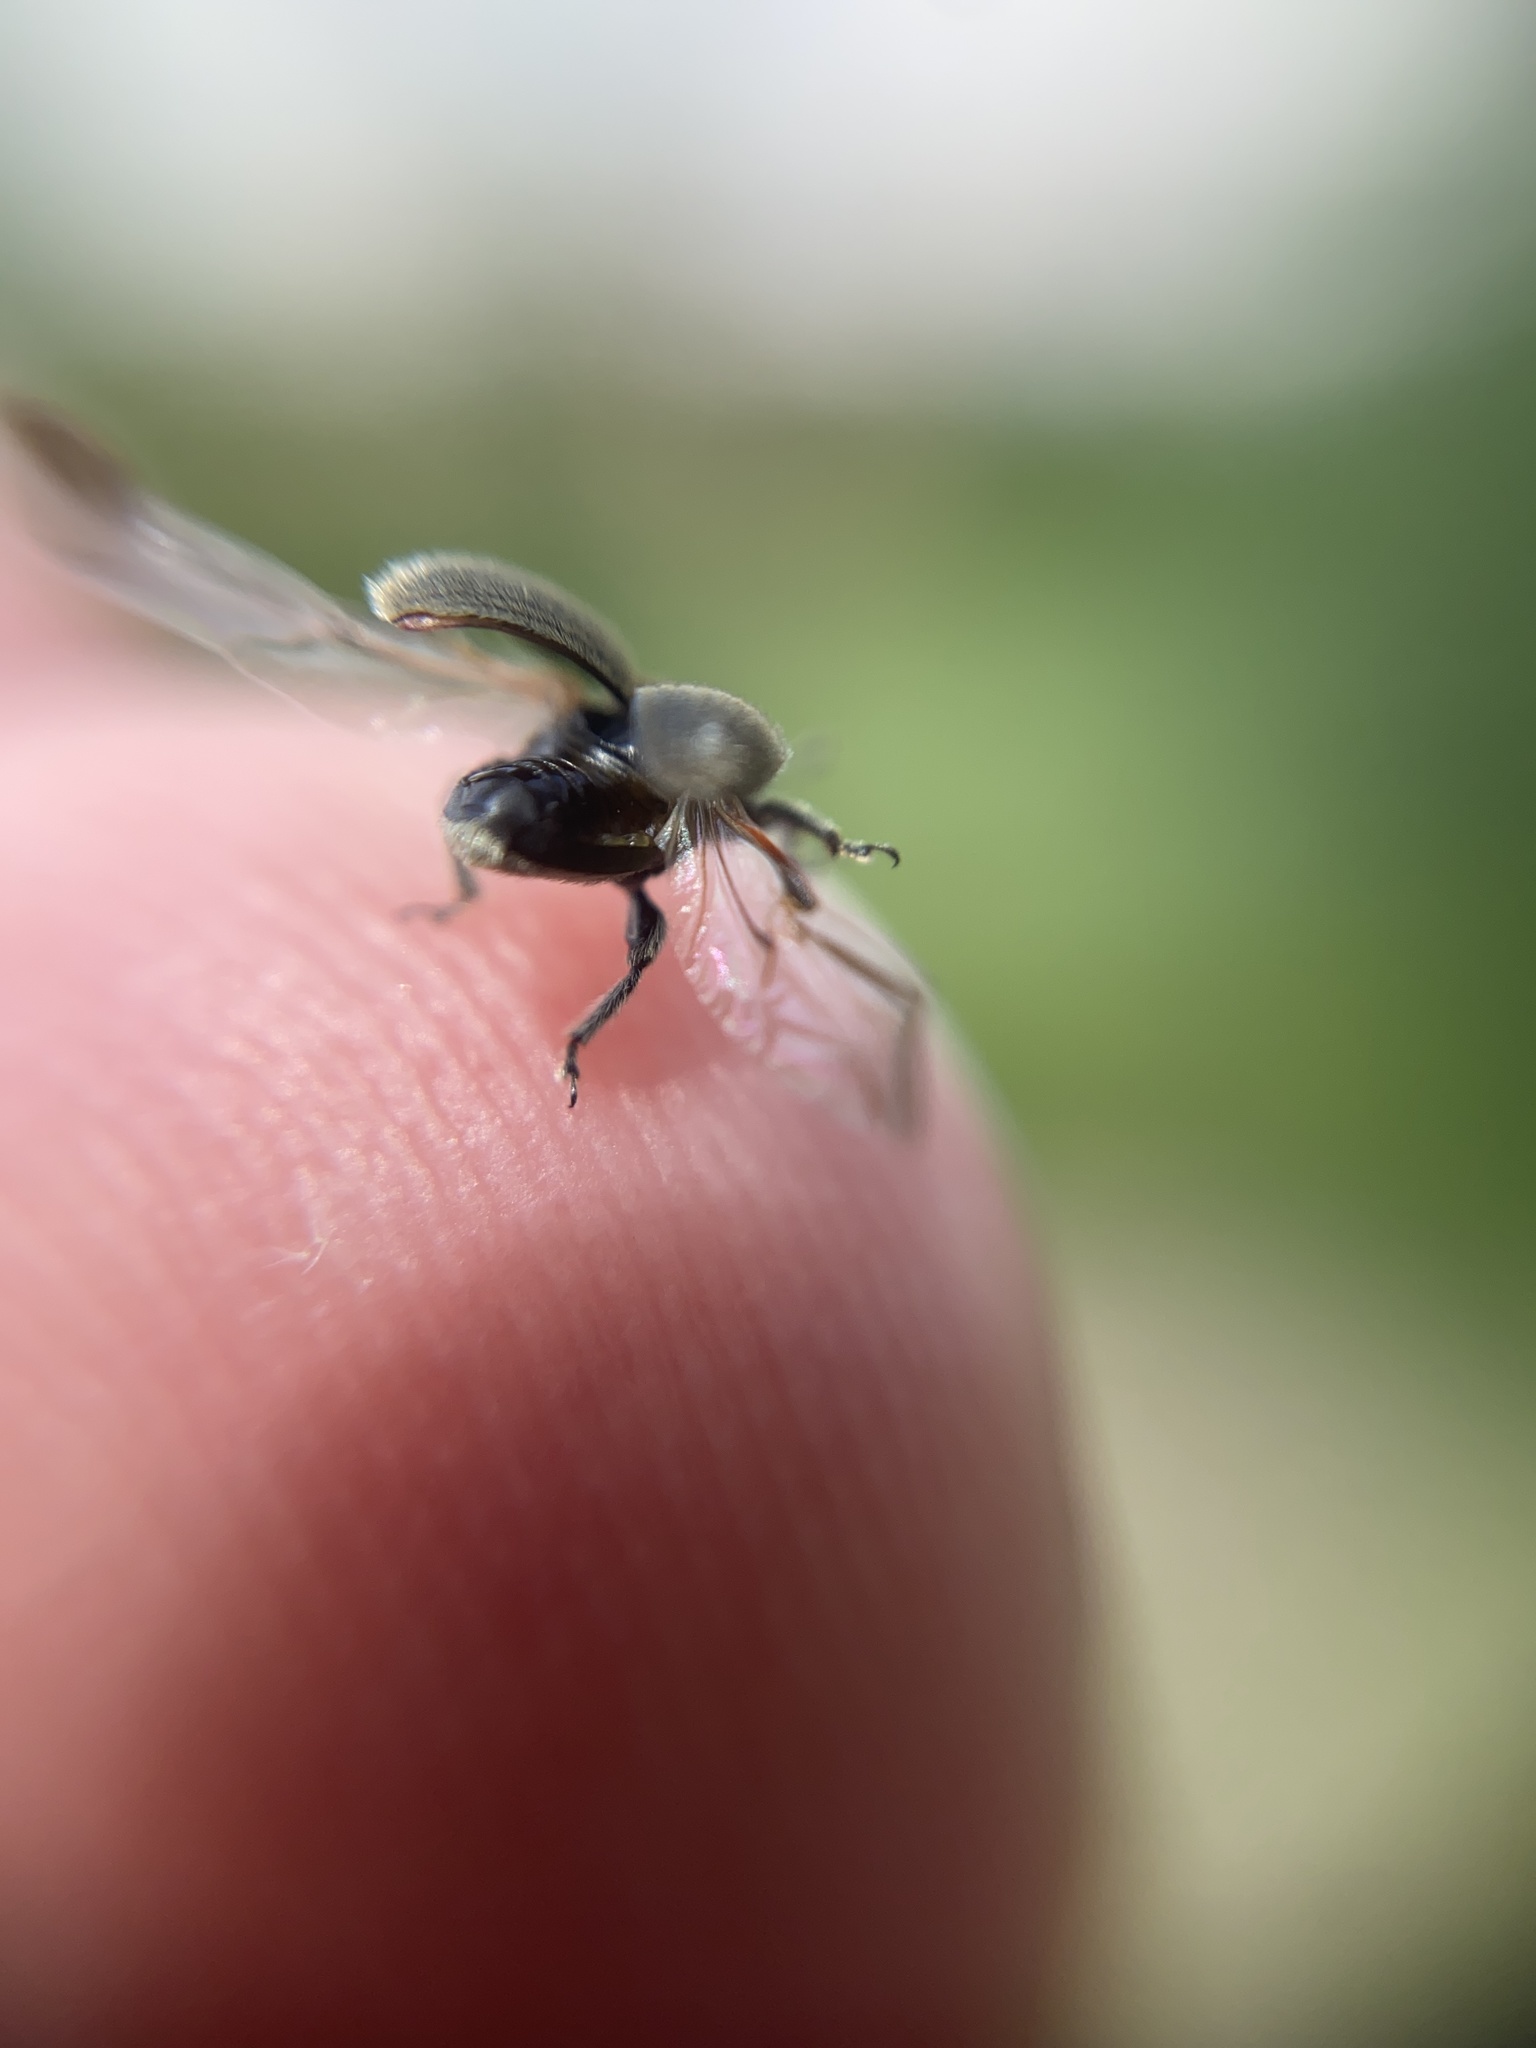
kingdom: Animalia
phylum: Arthropoda
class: Insecta
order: Coleoptera
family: Curculionidae
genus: Rhinusa
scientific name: Rhinusa tetra
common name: Weevil
